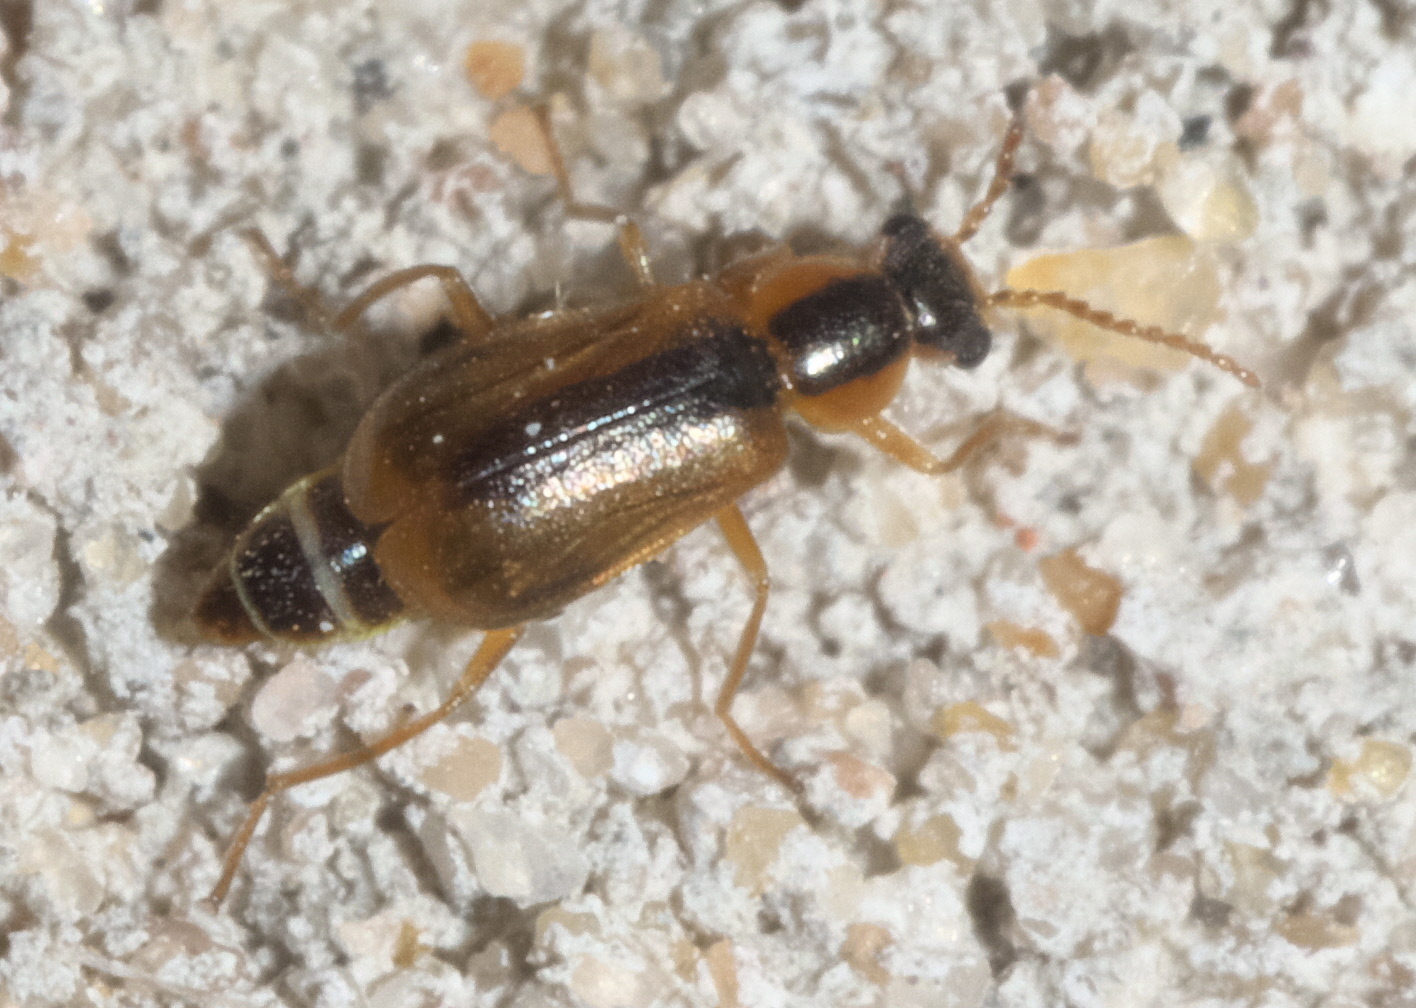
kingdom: Animalia
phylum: Arthropoda
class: Insecta
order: Coleoptera
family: Malachiidae
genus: Attalus
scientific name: Attalus
